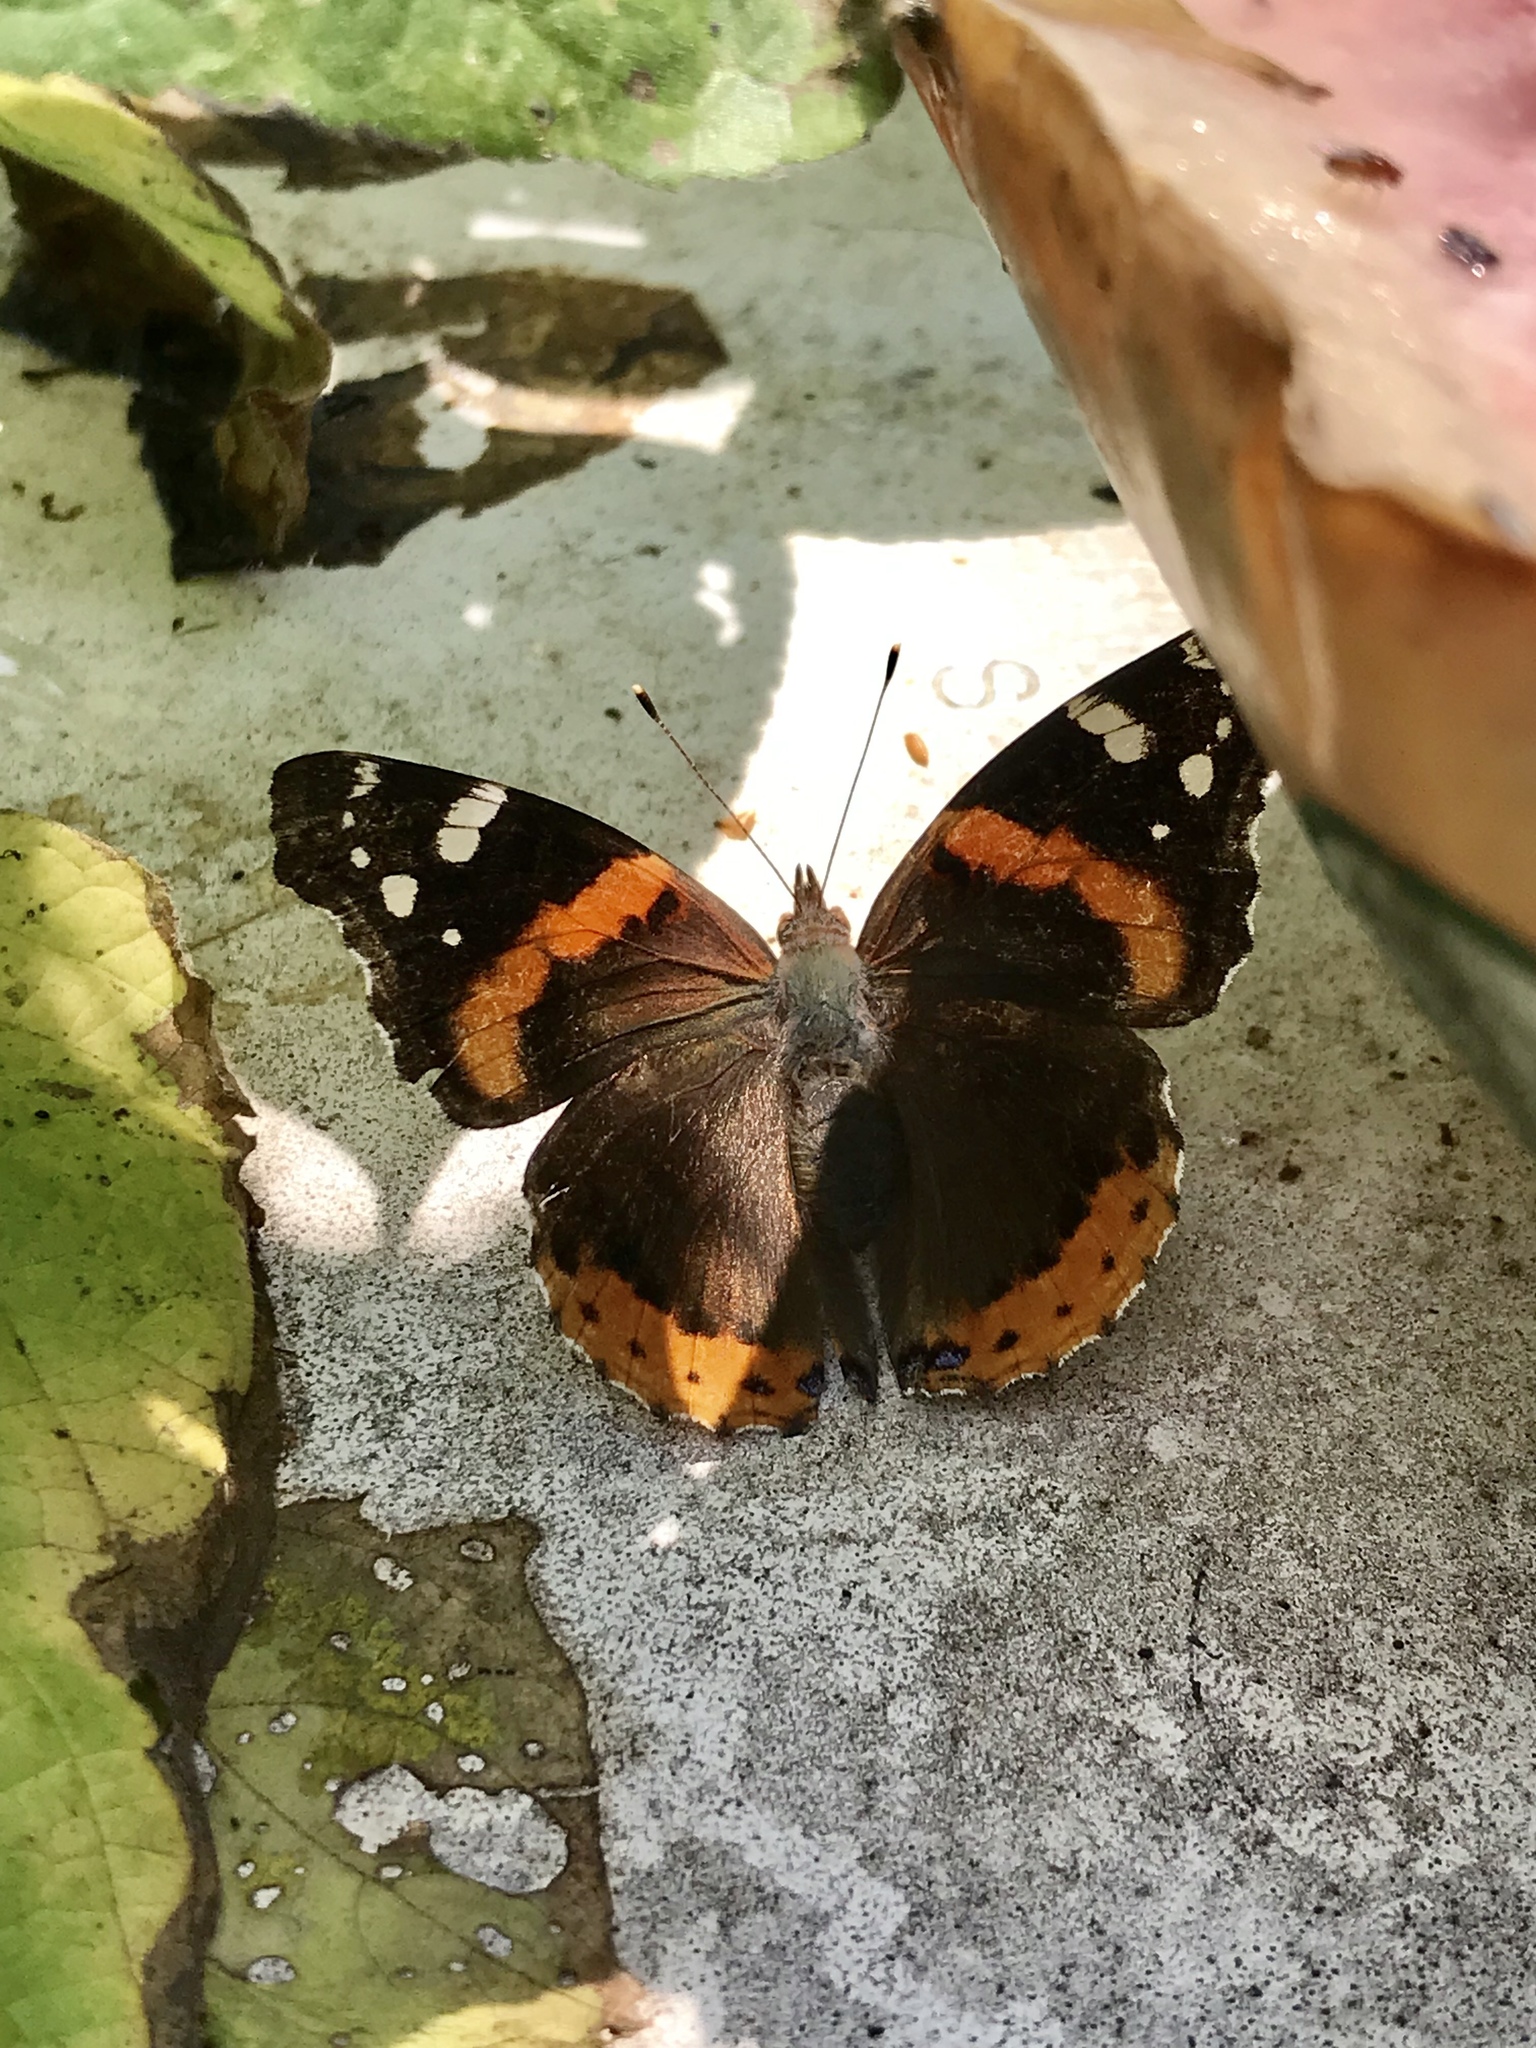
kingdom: Animalia
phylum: Arthropoda
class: Insecta
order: Lepidoptera
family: Nymphalidae
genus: Vanessa
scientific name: Vanessa atalanta
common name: Red admiral
